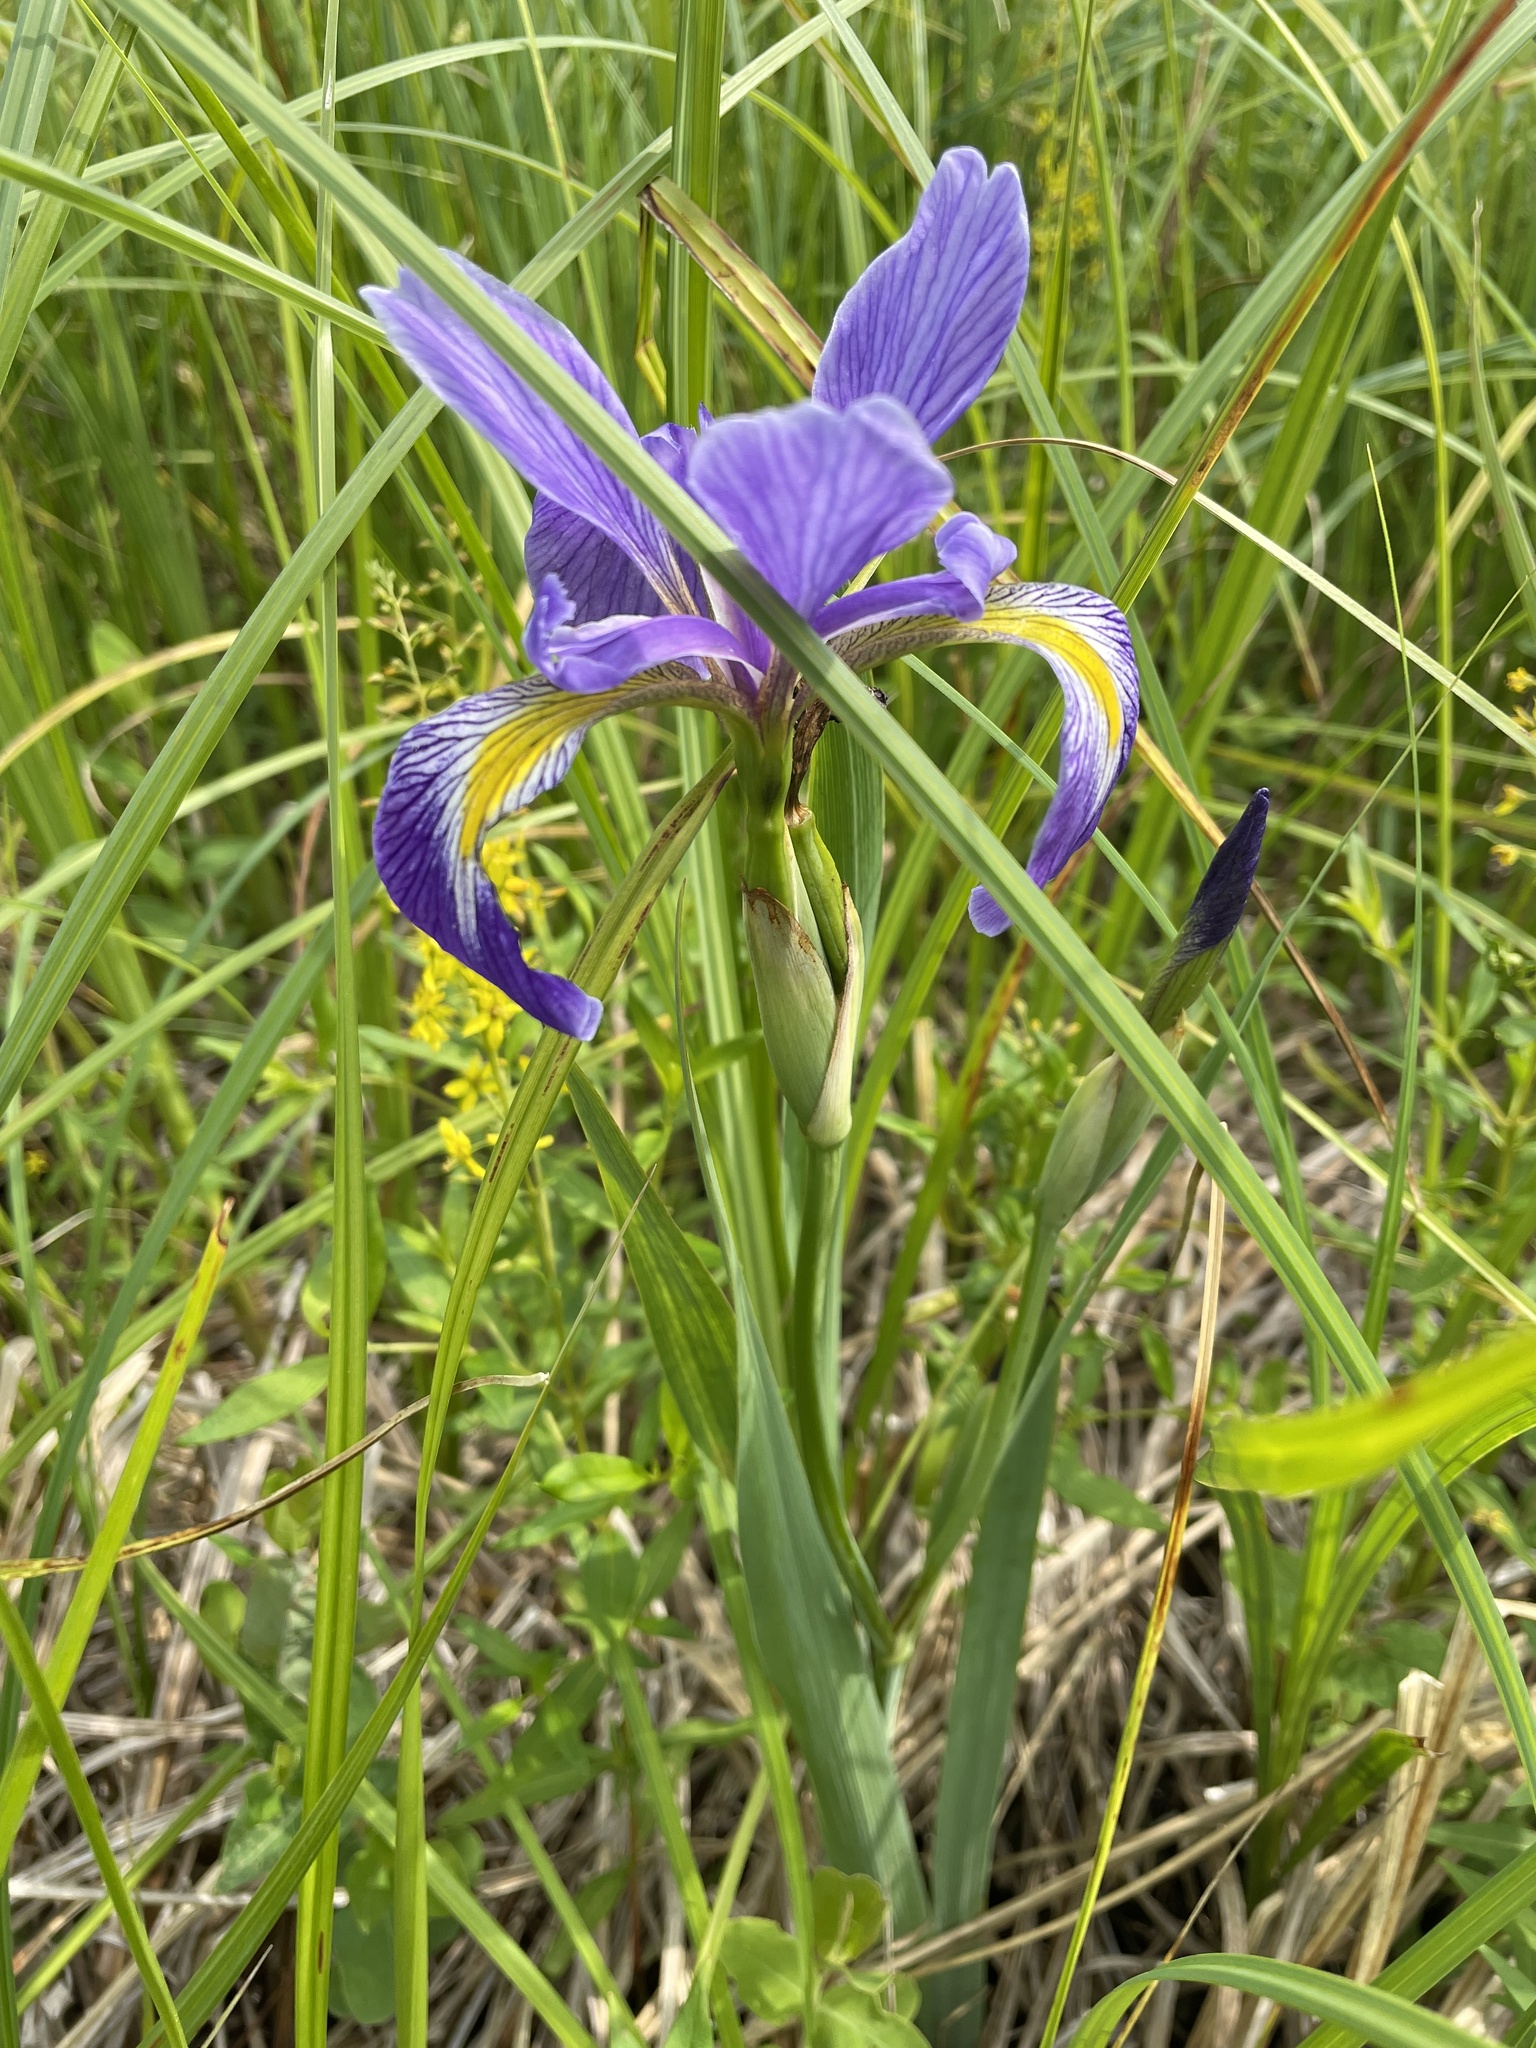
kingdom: Plantae
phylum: Tracheophyta
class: Liliopsida
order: Asparagales
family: Iridaceae
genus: Iris
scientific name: Iris virginica
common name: Southern blue flag
